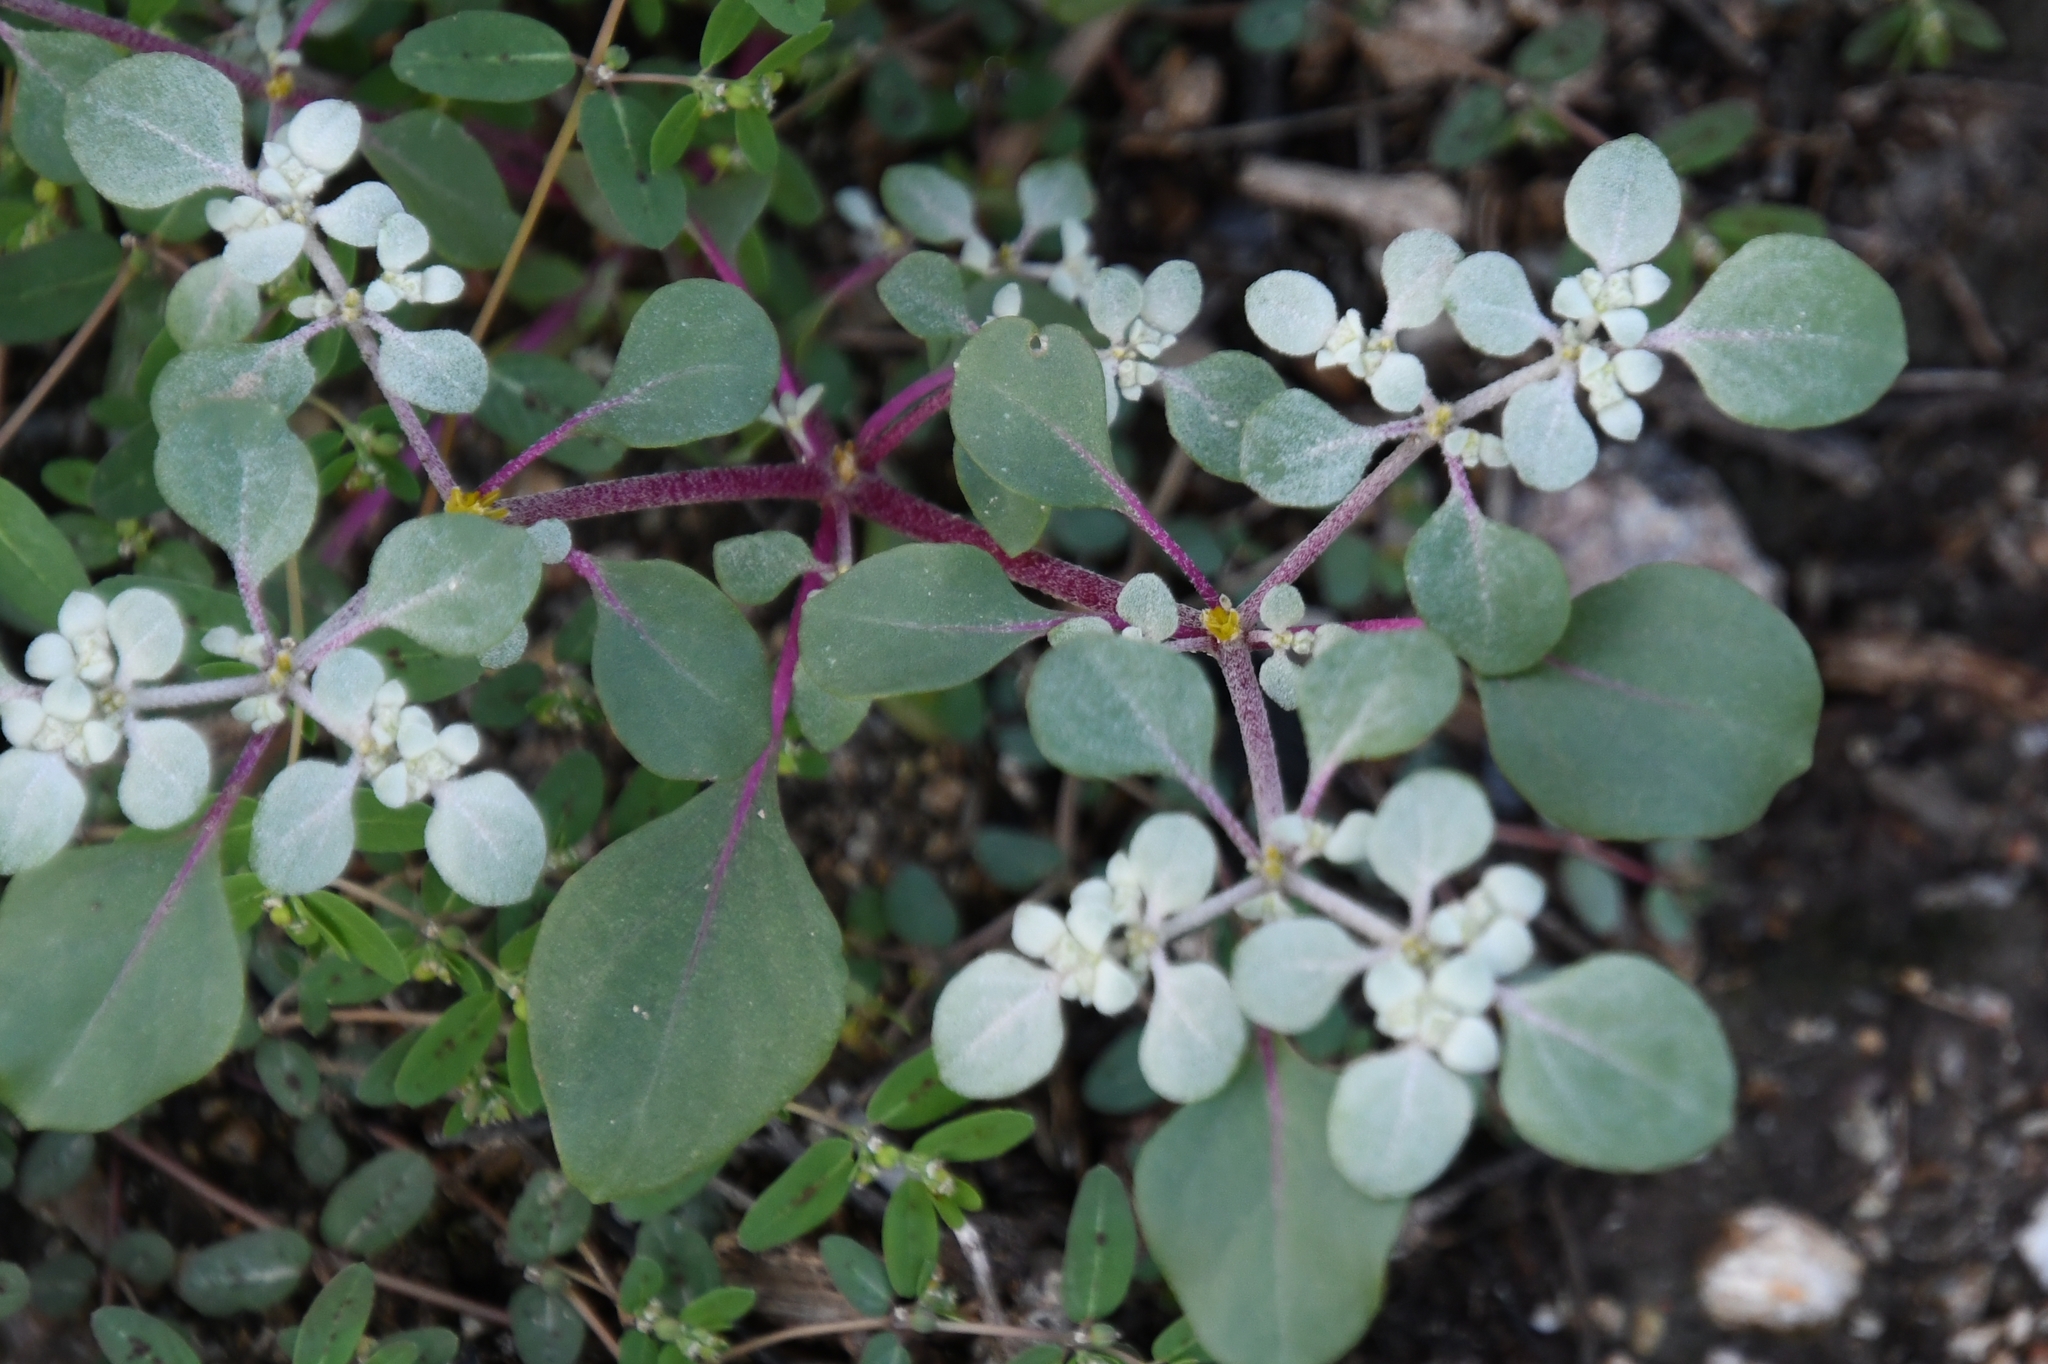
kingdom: Plantae
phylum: Tracheophyta
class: Magnoliopsida
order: Caryophyllales
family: Amaranthaceae
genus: Tidestromia
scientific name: Tidestromia lanuginosa
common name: Woolly tidestromia
